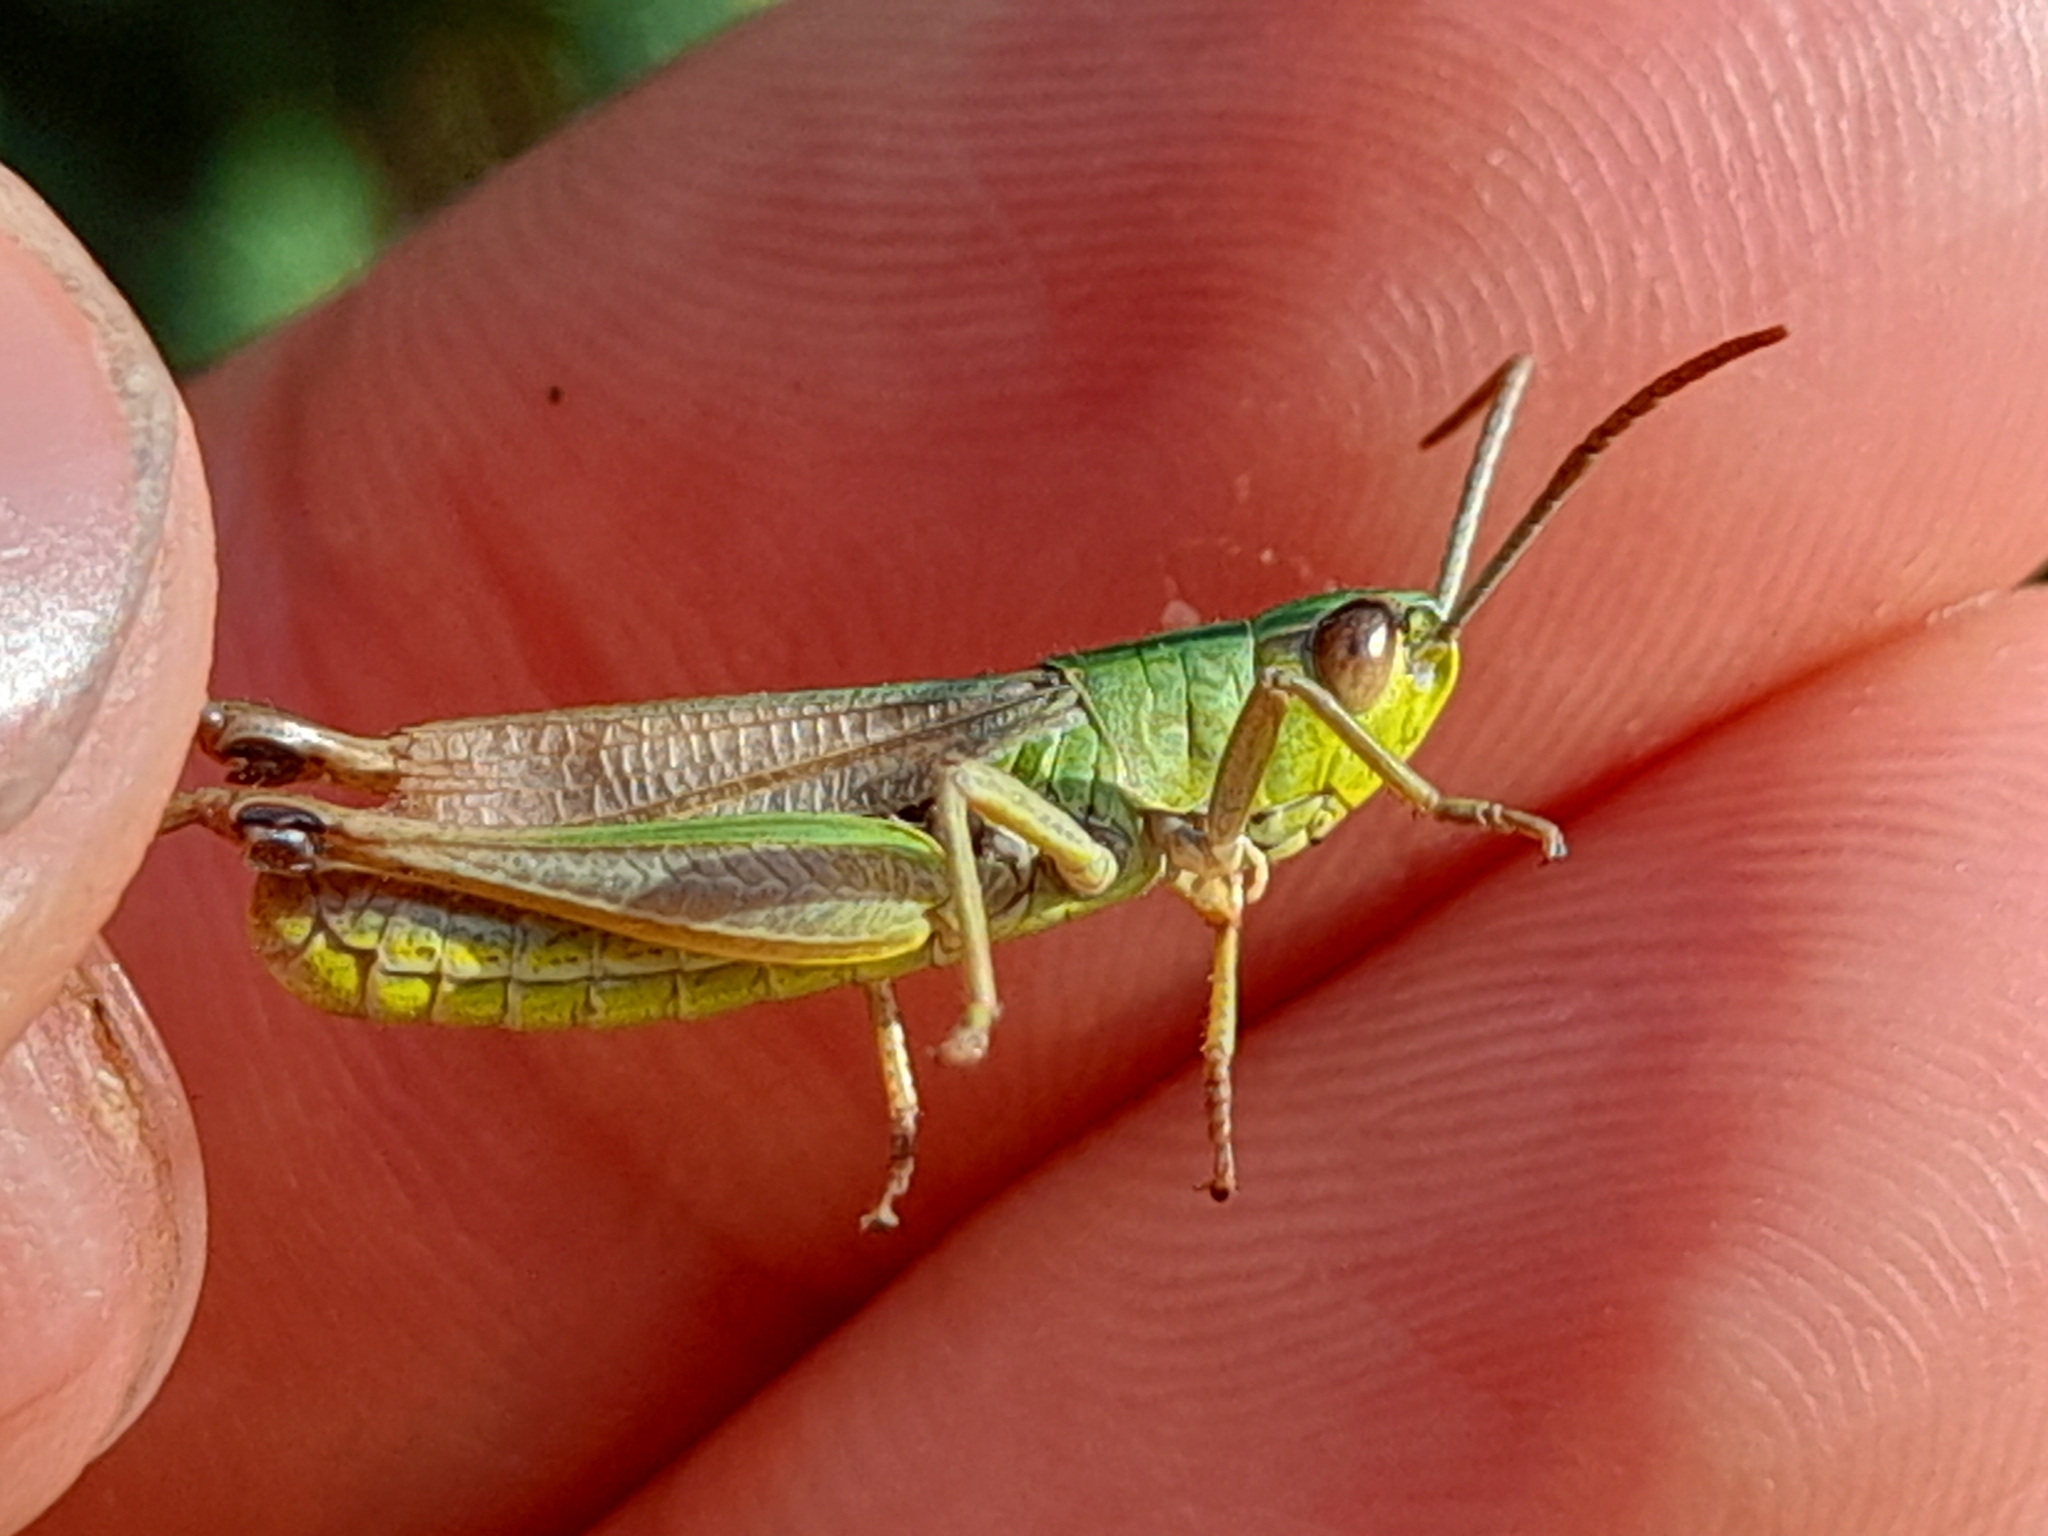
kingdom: Animalia
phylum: Arthropoda
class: Insecta
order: Orthoptera
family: Acrididae
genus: Pseudochorthippus
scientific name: Pseudochorthippus parallelus
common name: Meadow grasshopper
